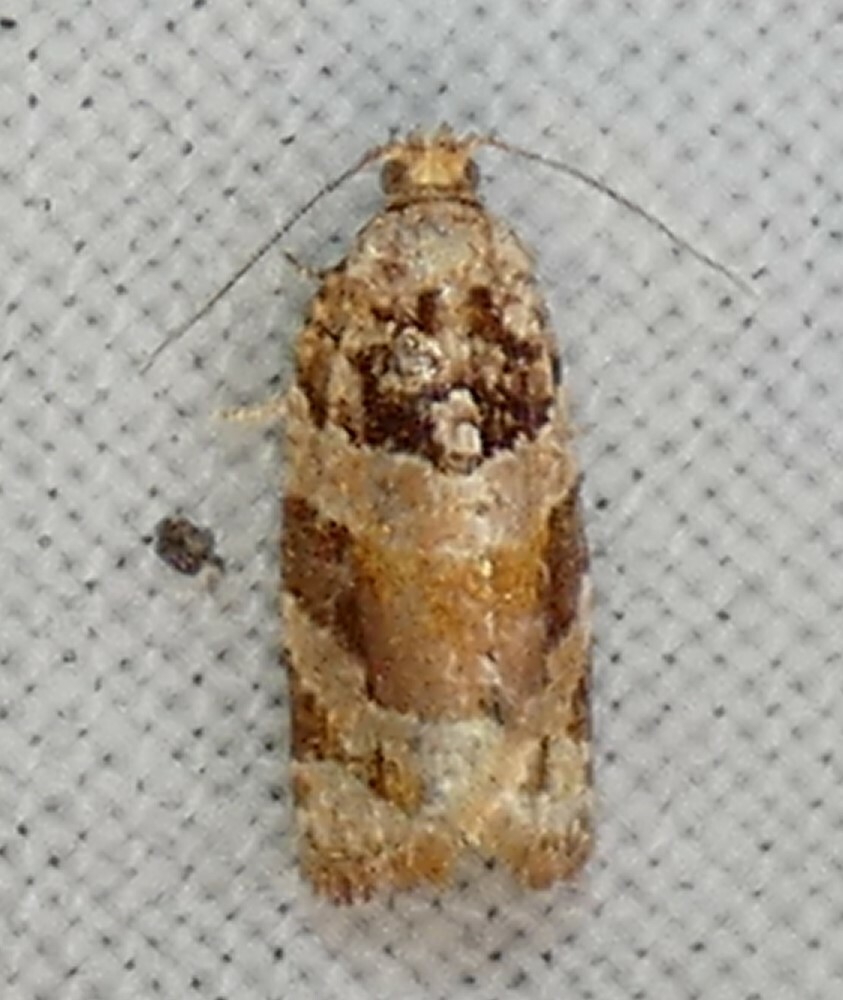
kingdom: Animalia
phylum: Arthropoda
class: Insecta
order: Lepidoptera
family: Tortricidae
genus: Argyrotaenia
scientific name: Argyrotaenia kimballi
